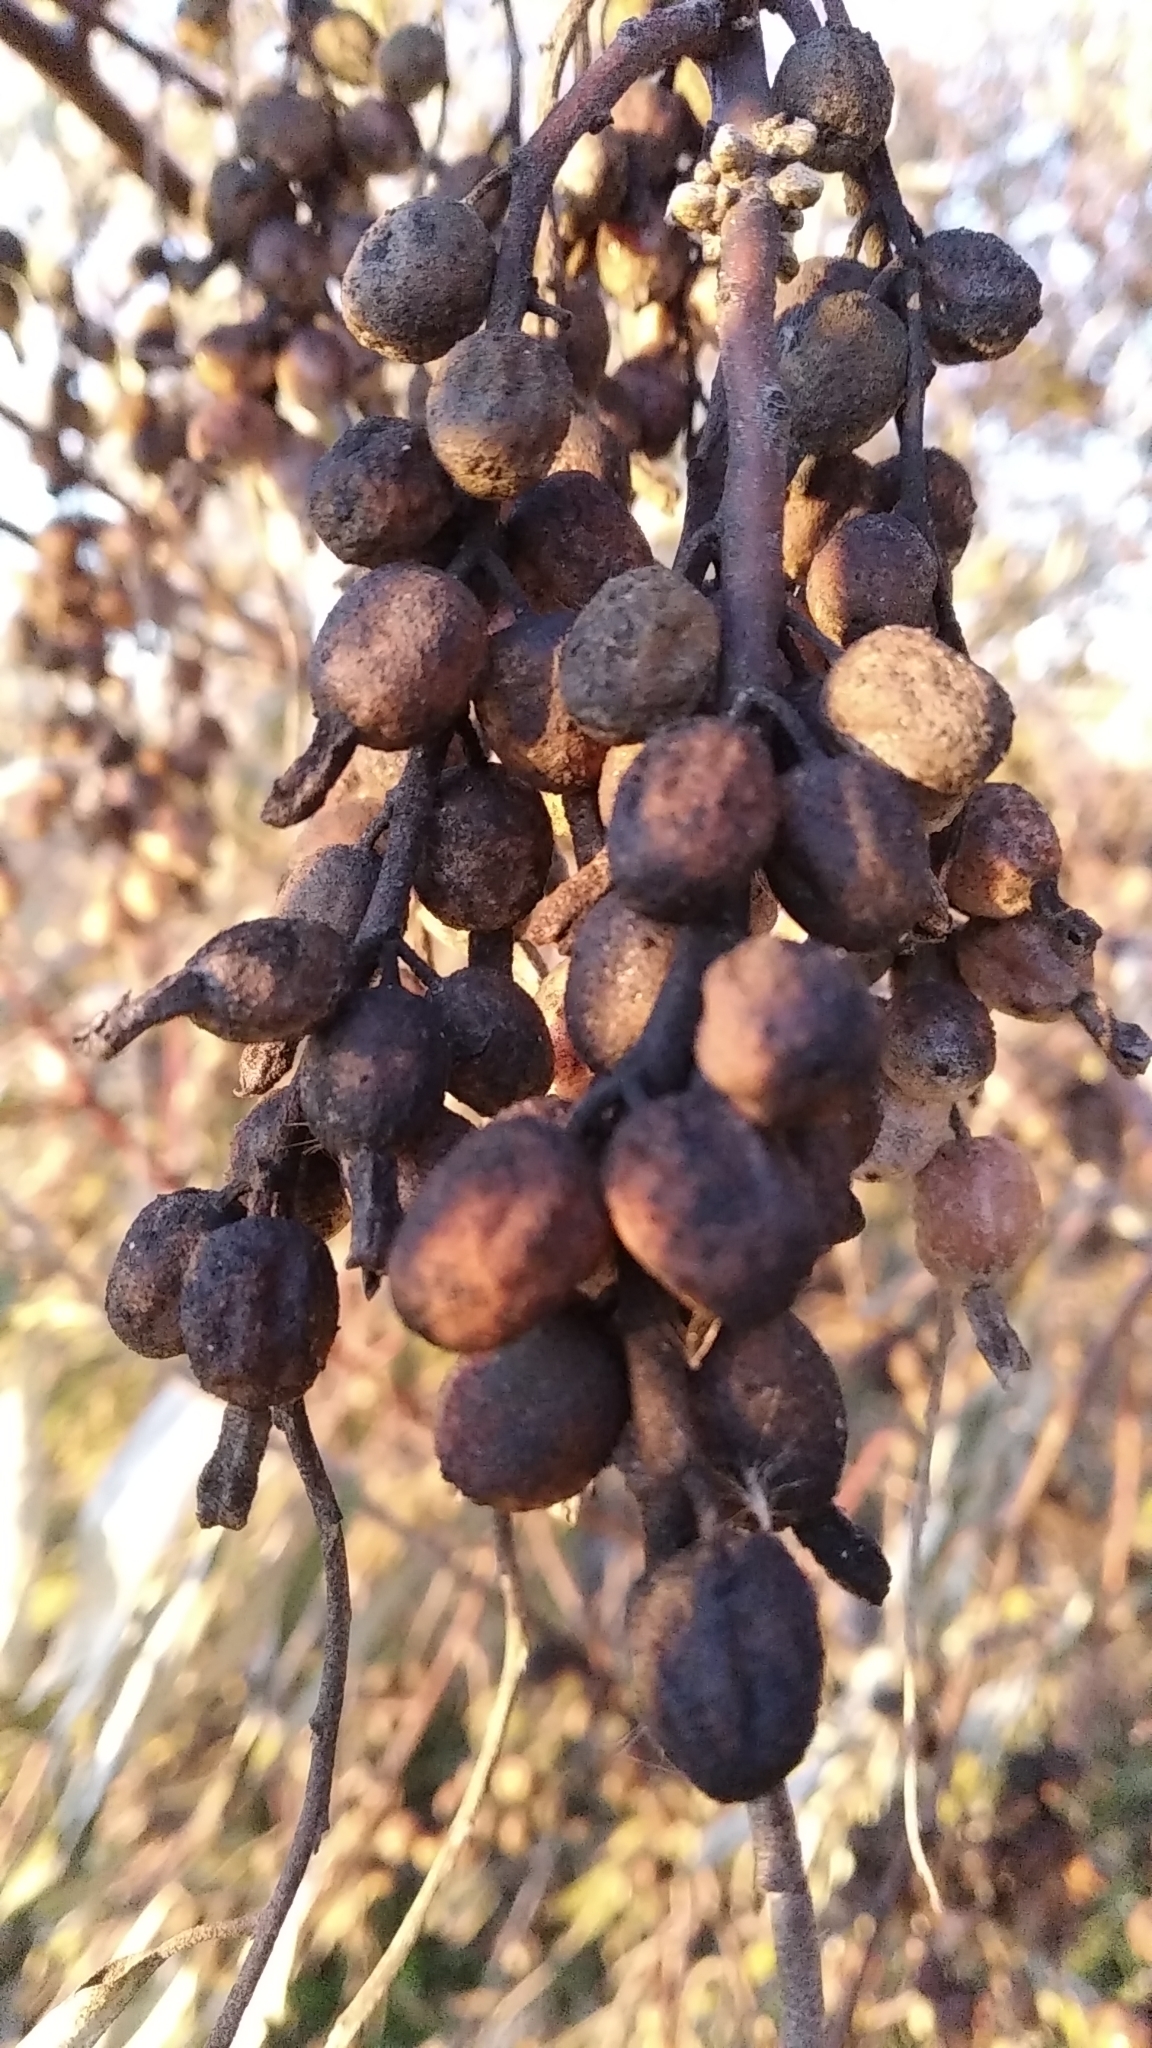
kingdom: Plantae
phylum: Tracheophyta
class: Magnoliopsida
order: Rosales
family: Elaeagnaceae
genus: Elaeagnus
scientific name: Elaeagnus angustifolia
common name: Russian olive
